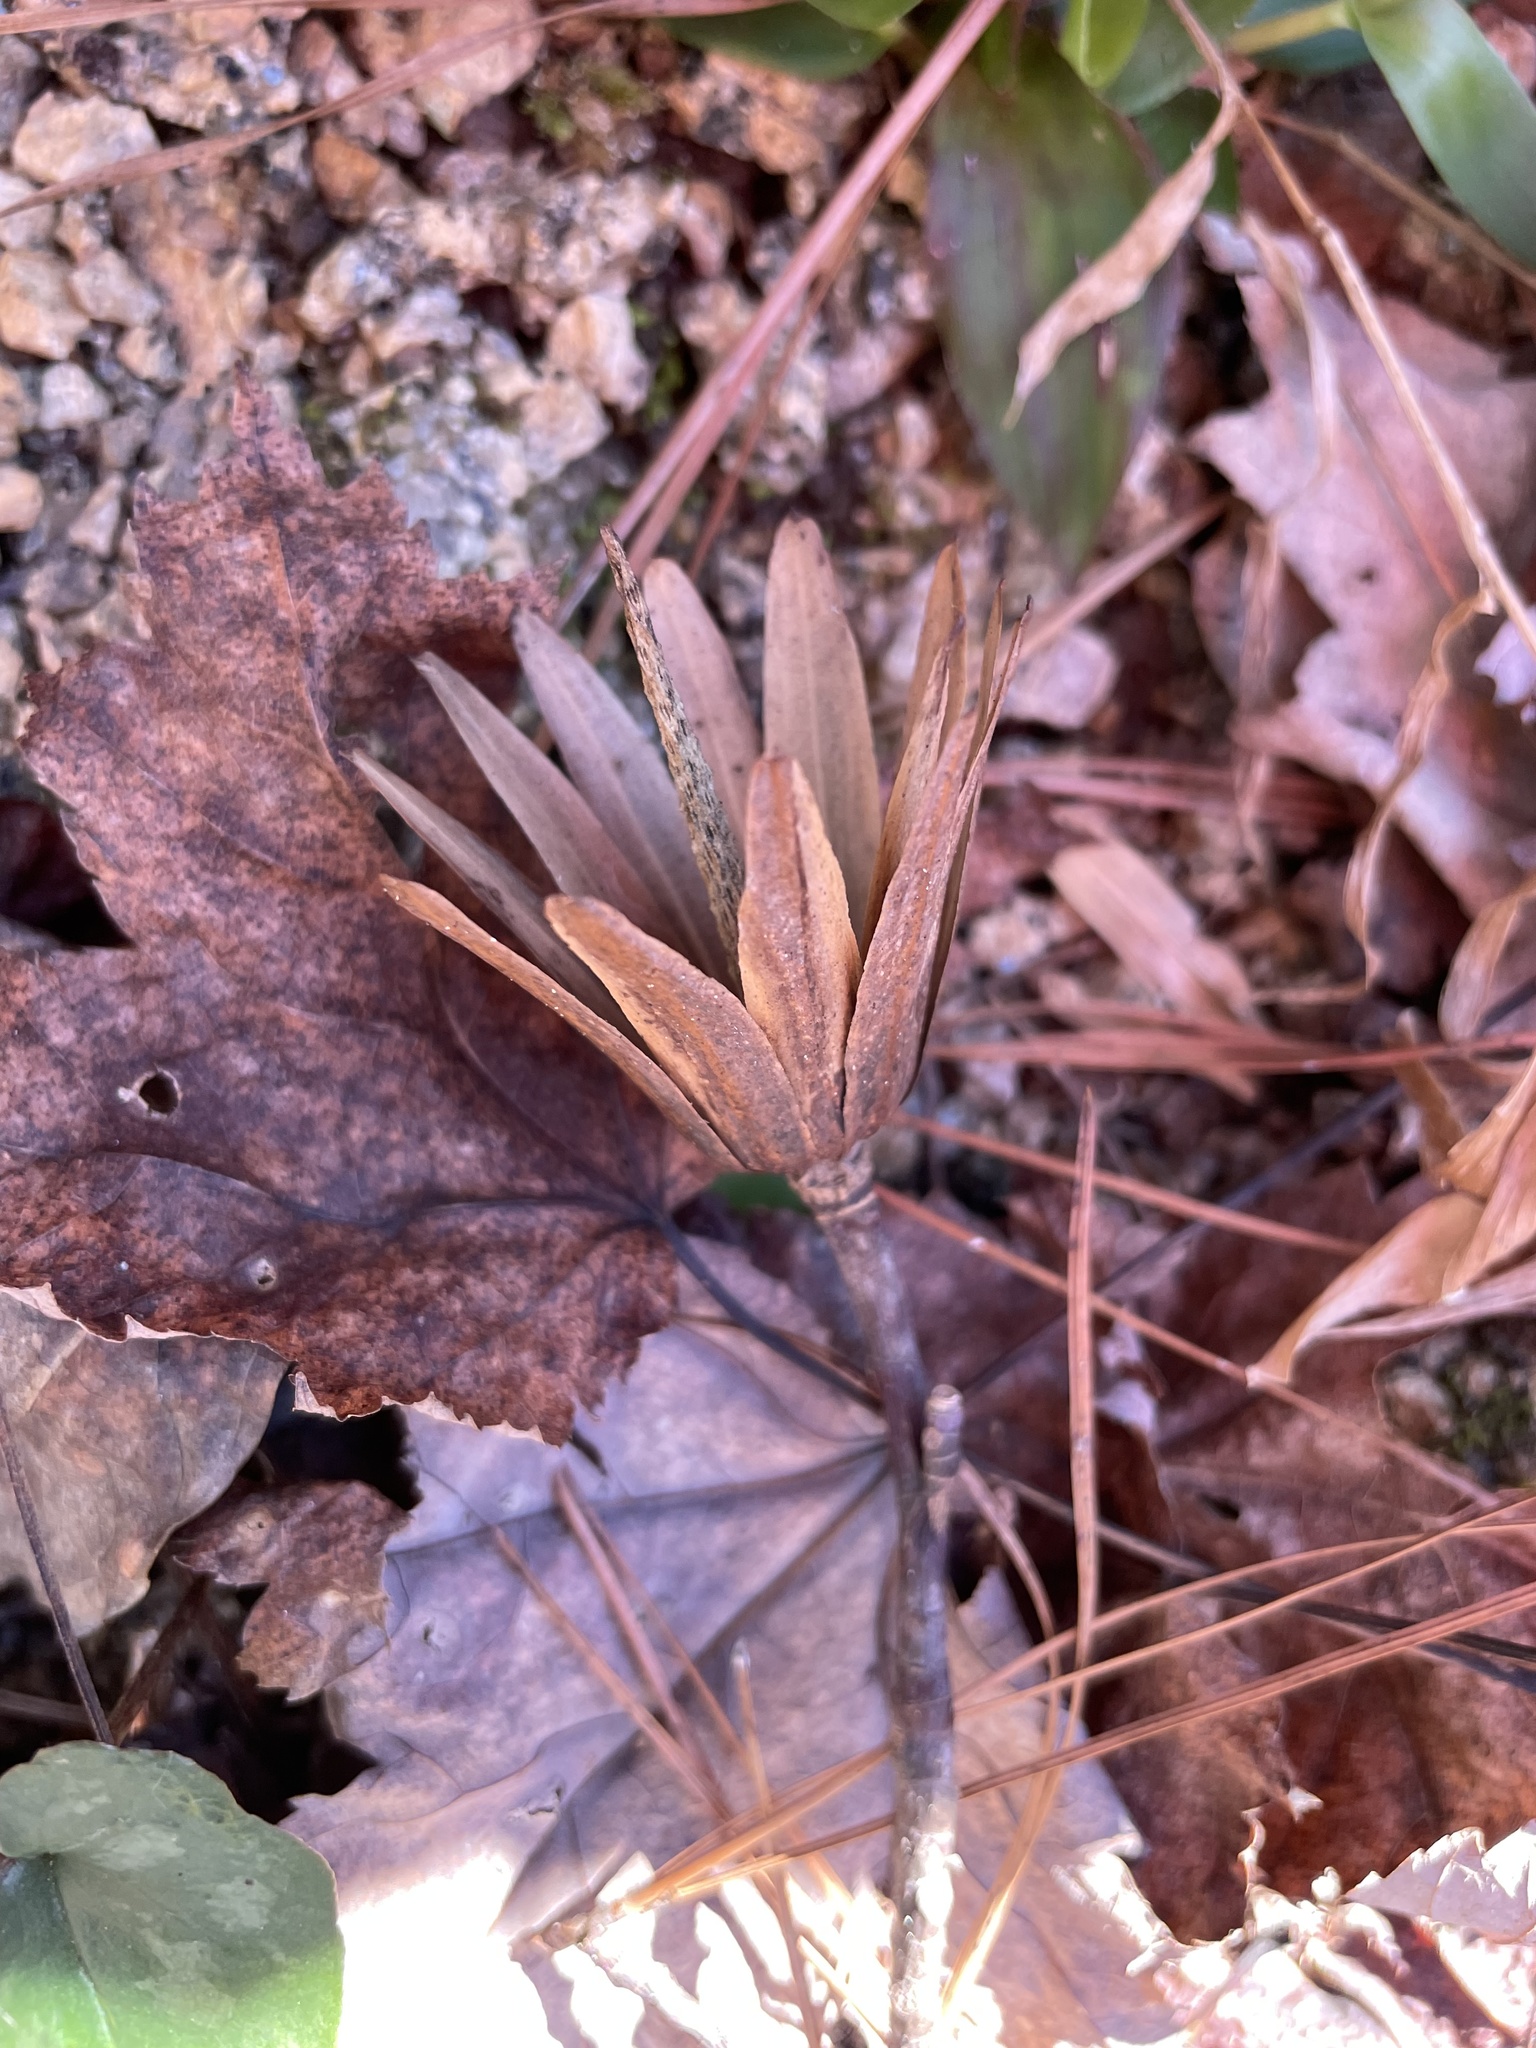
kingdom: Plantae
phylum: Tracheophyta
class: Magnoliopsida
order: Magnoliales
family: Magnoliaceae
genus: Liriodendron
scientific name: Liriodendron tulipifera
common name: Tulip tree
